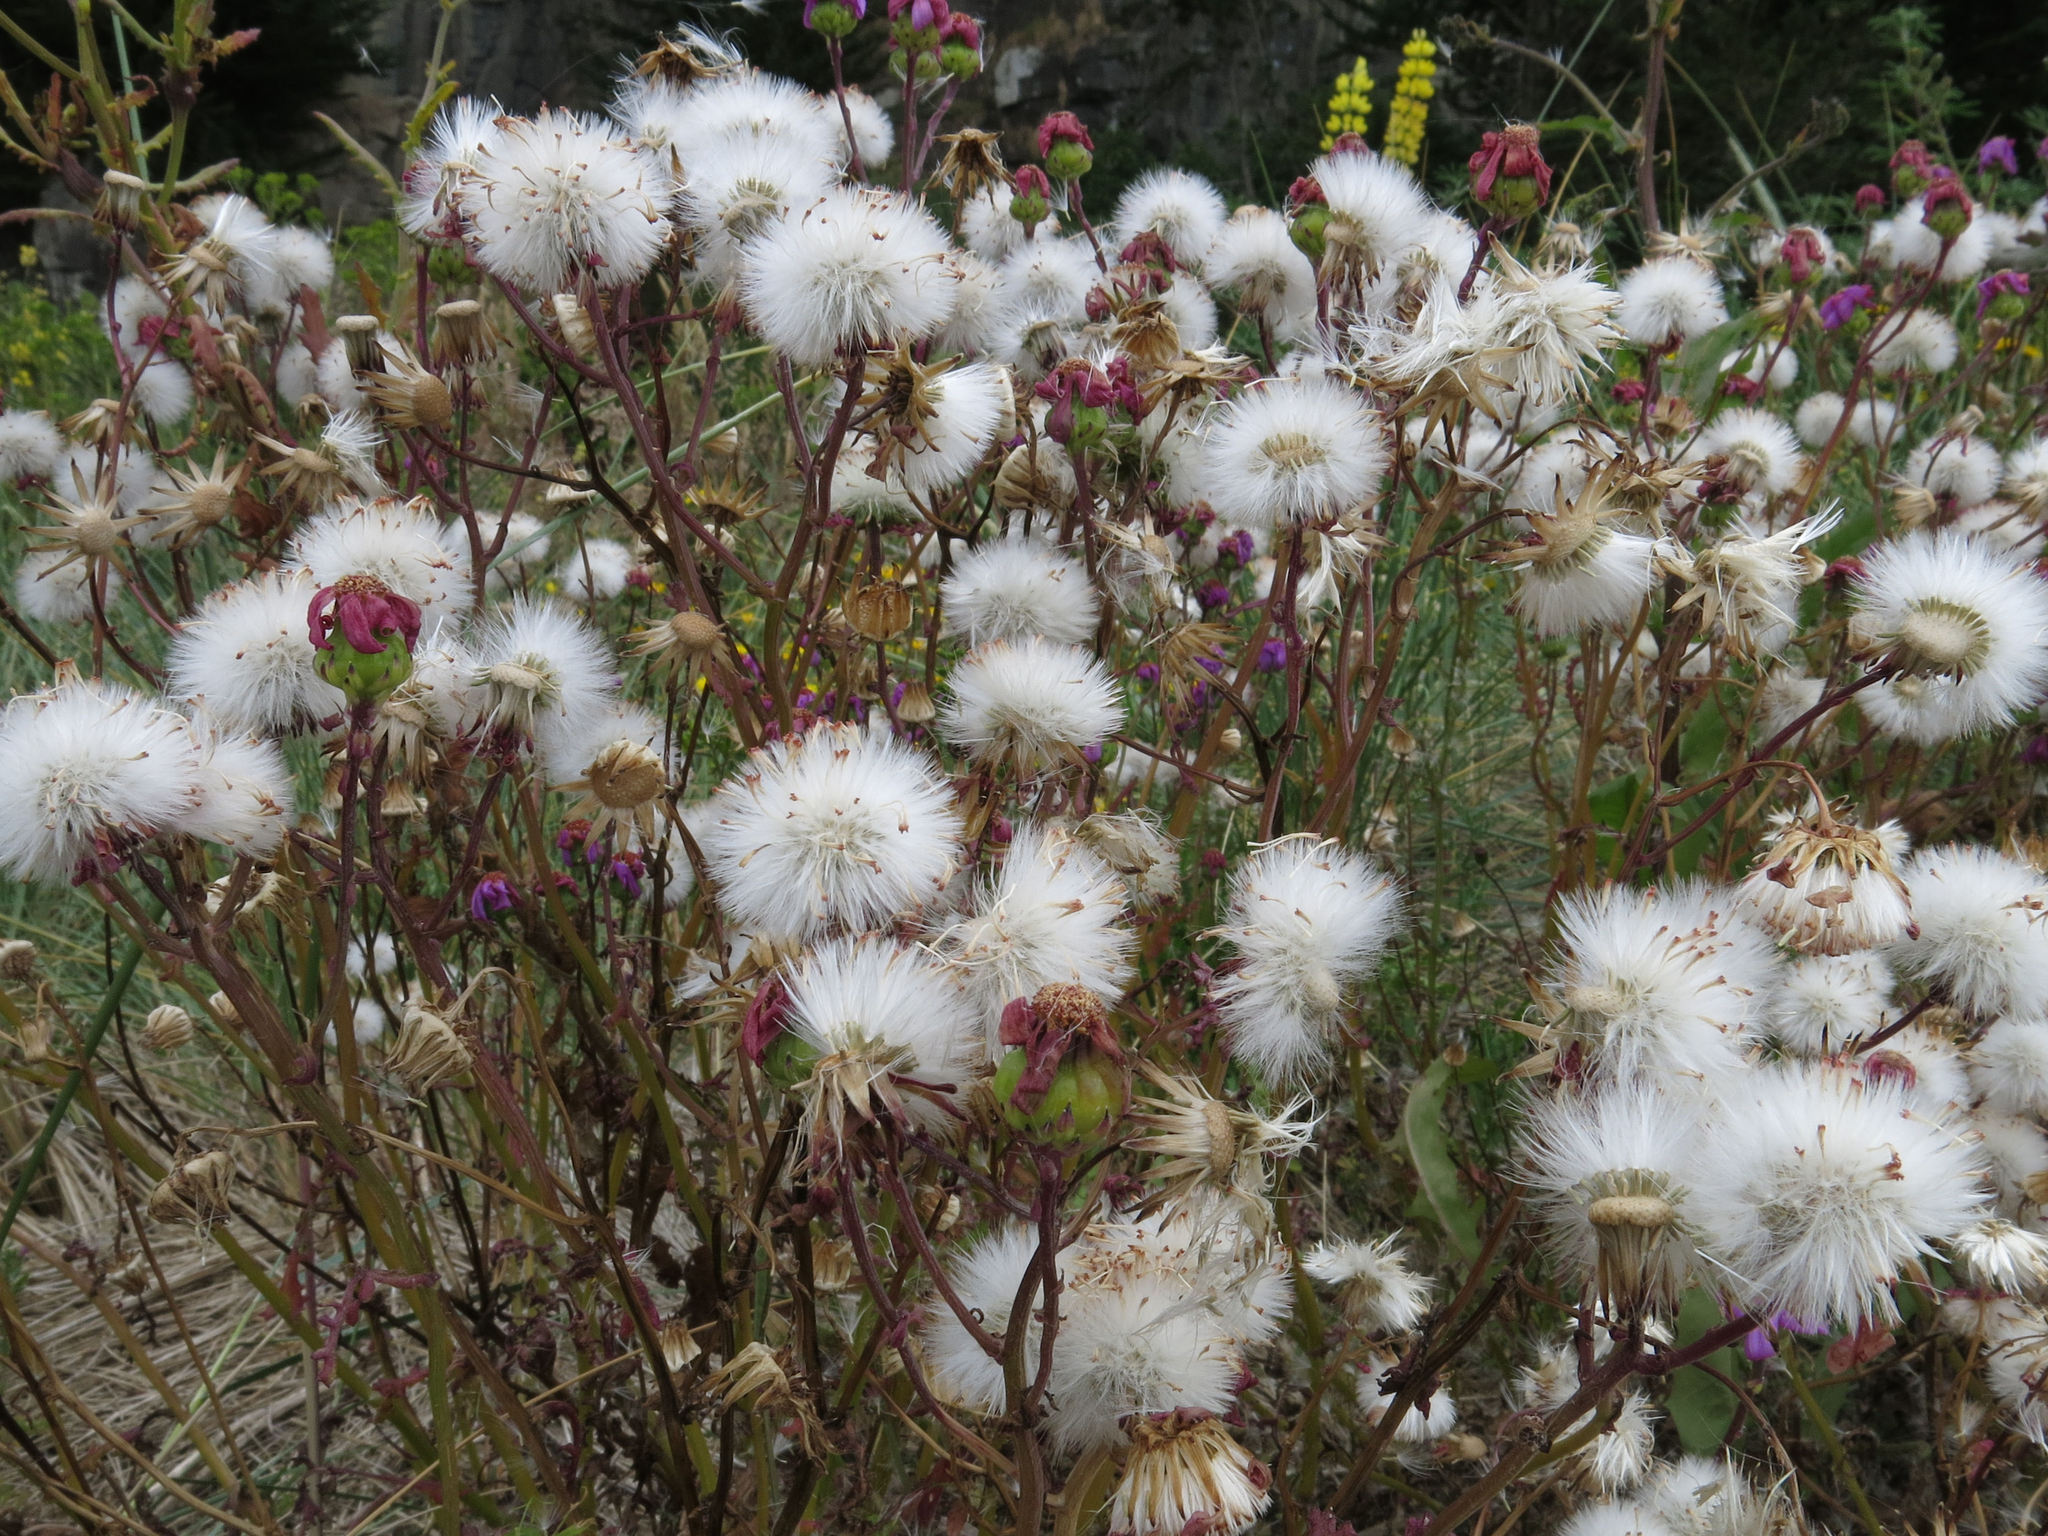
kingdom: Plantae
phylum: Tracheophyta
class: Magnoliopsida
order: Asterales
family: Asteraceae
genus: Senecio
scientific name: Senecio elegans
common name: Purple groundsel
